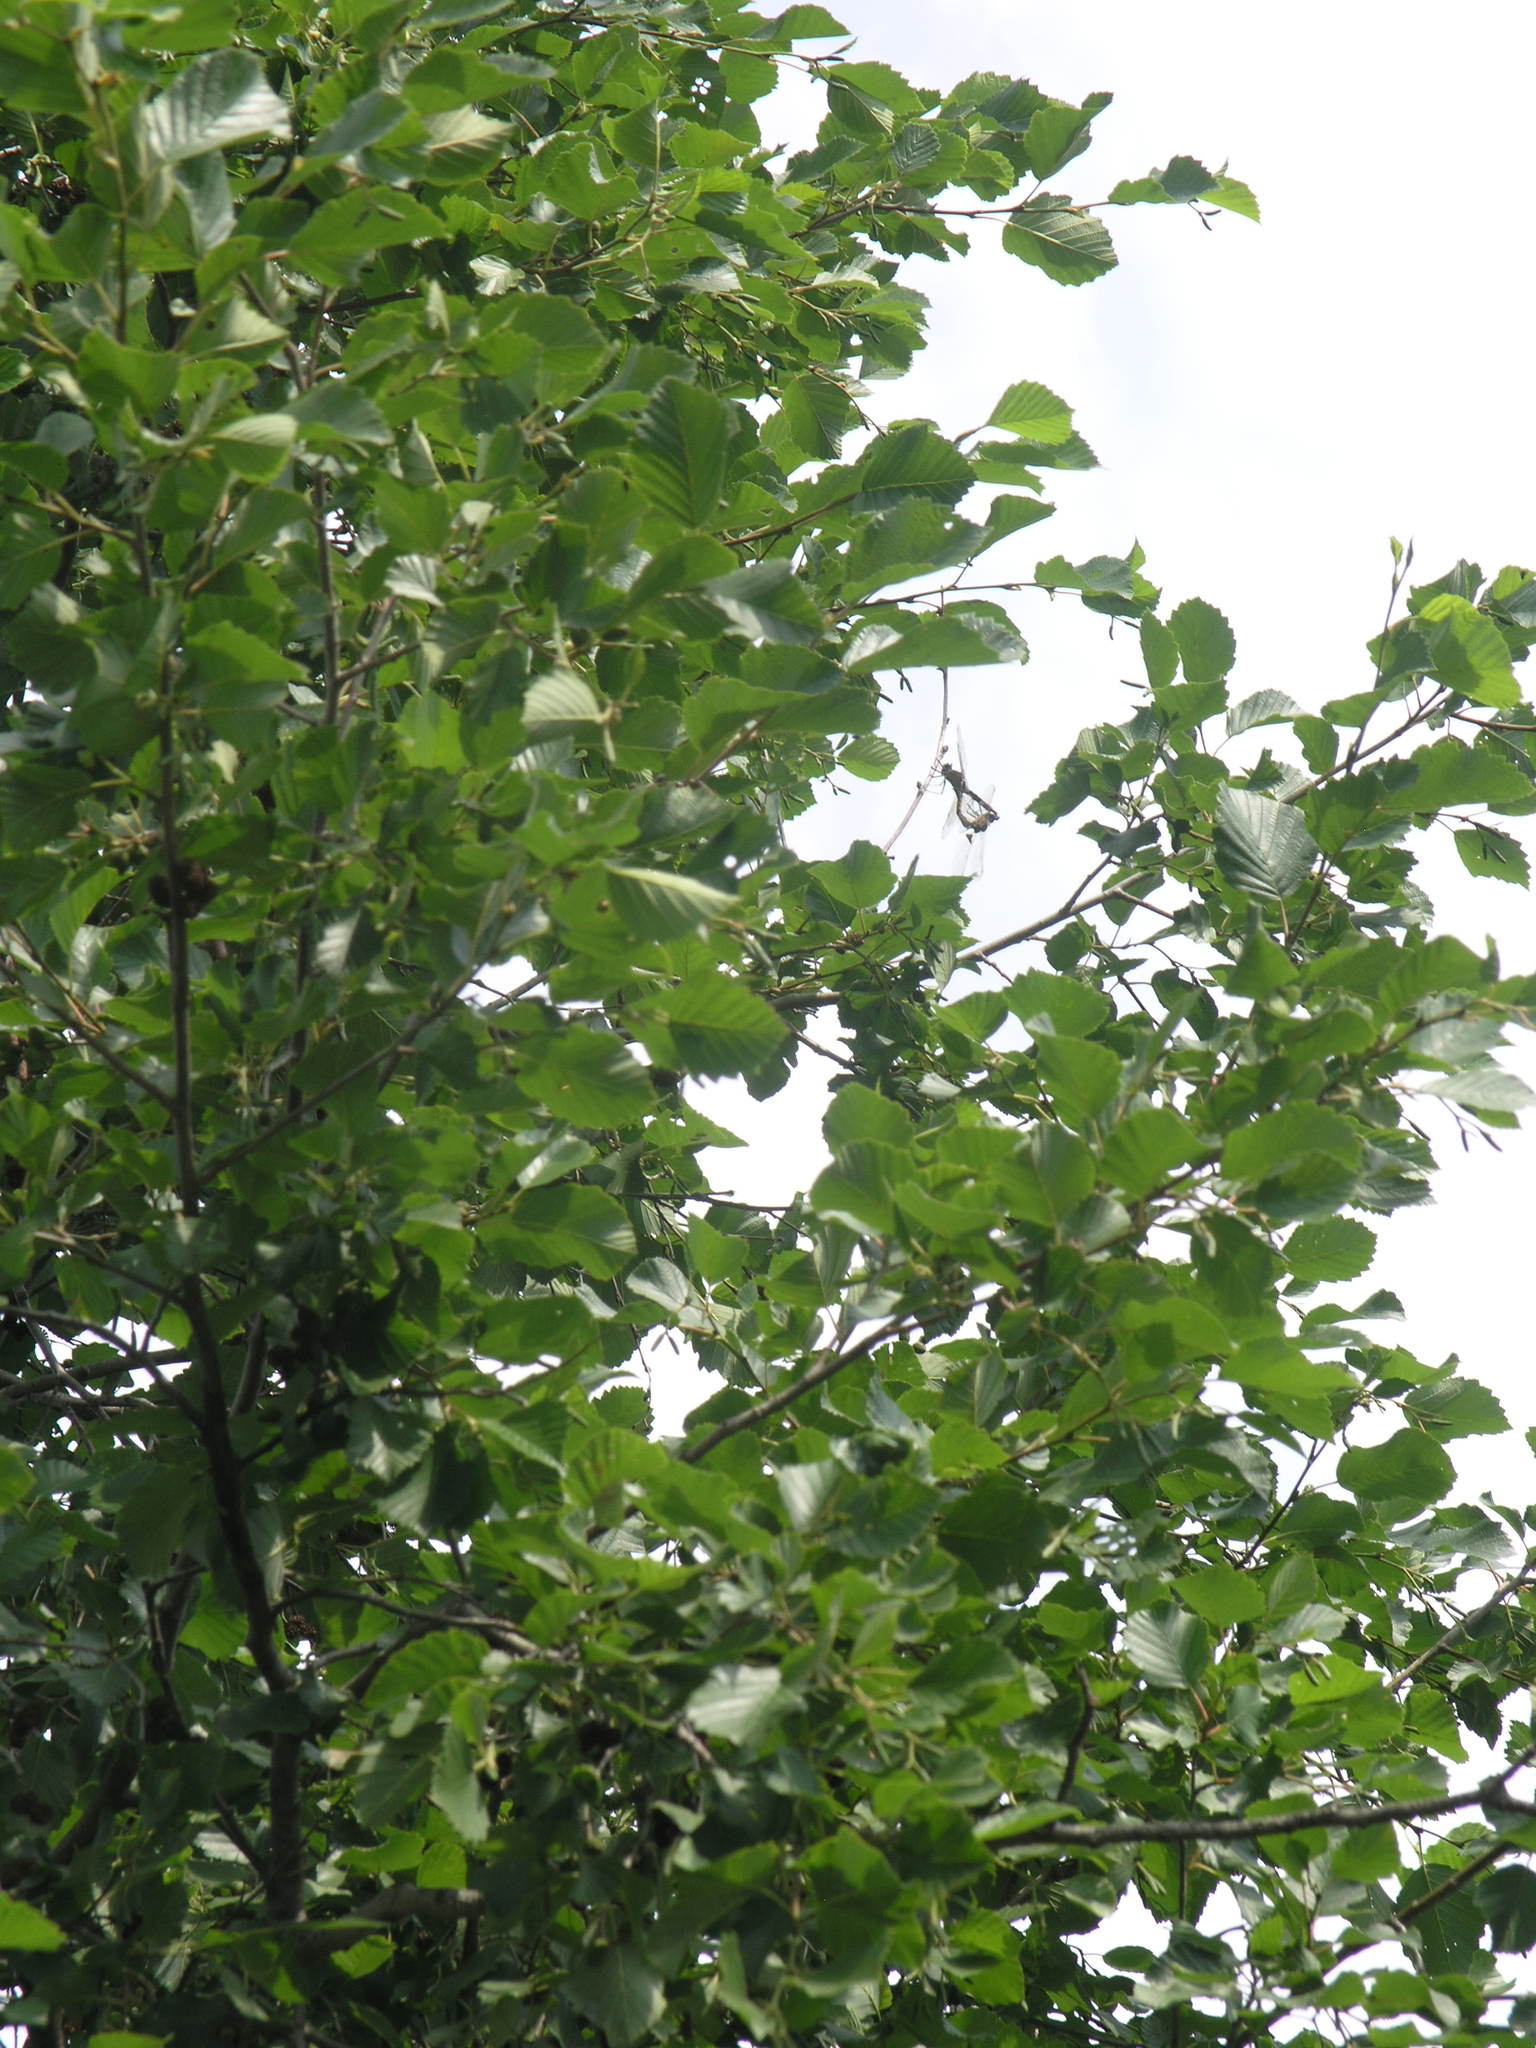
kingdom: Plantae
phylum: Tracheophyta
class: Magnoliopsida
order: Fagales
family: Betulaceae
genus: Alnus
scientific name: Alnus glutinosa
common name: Black alder
